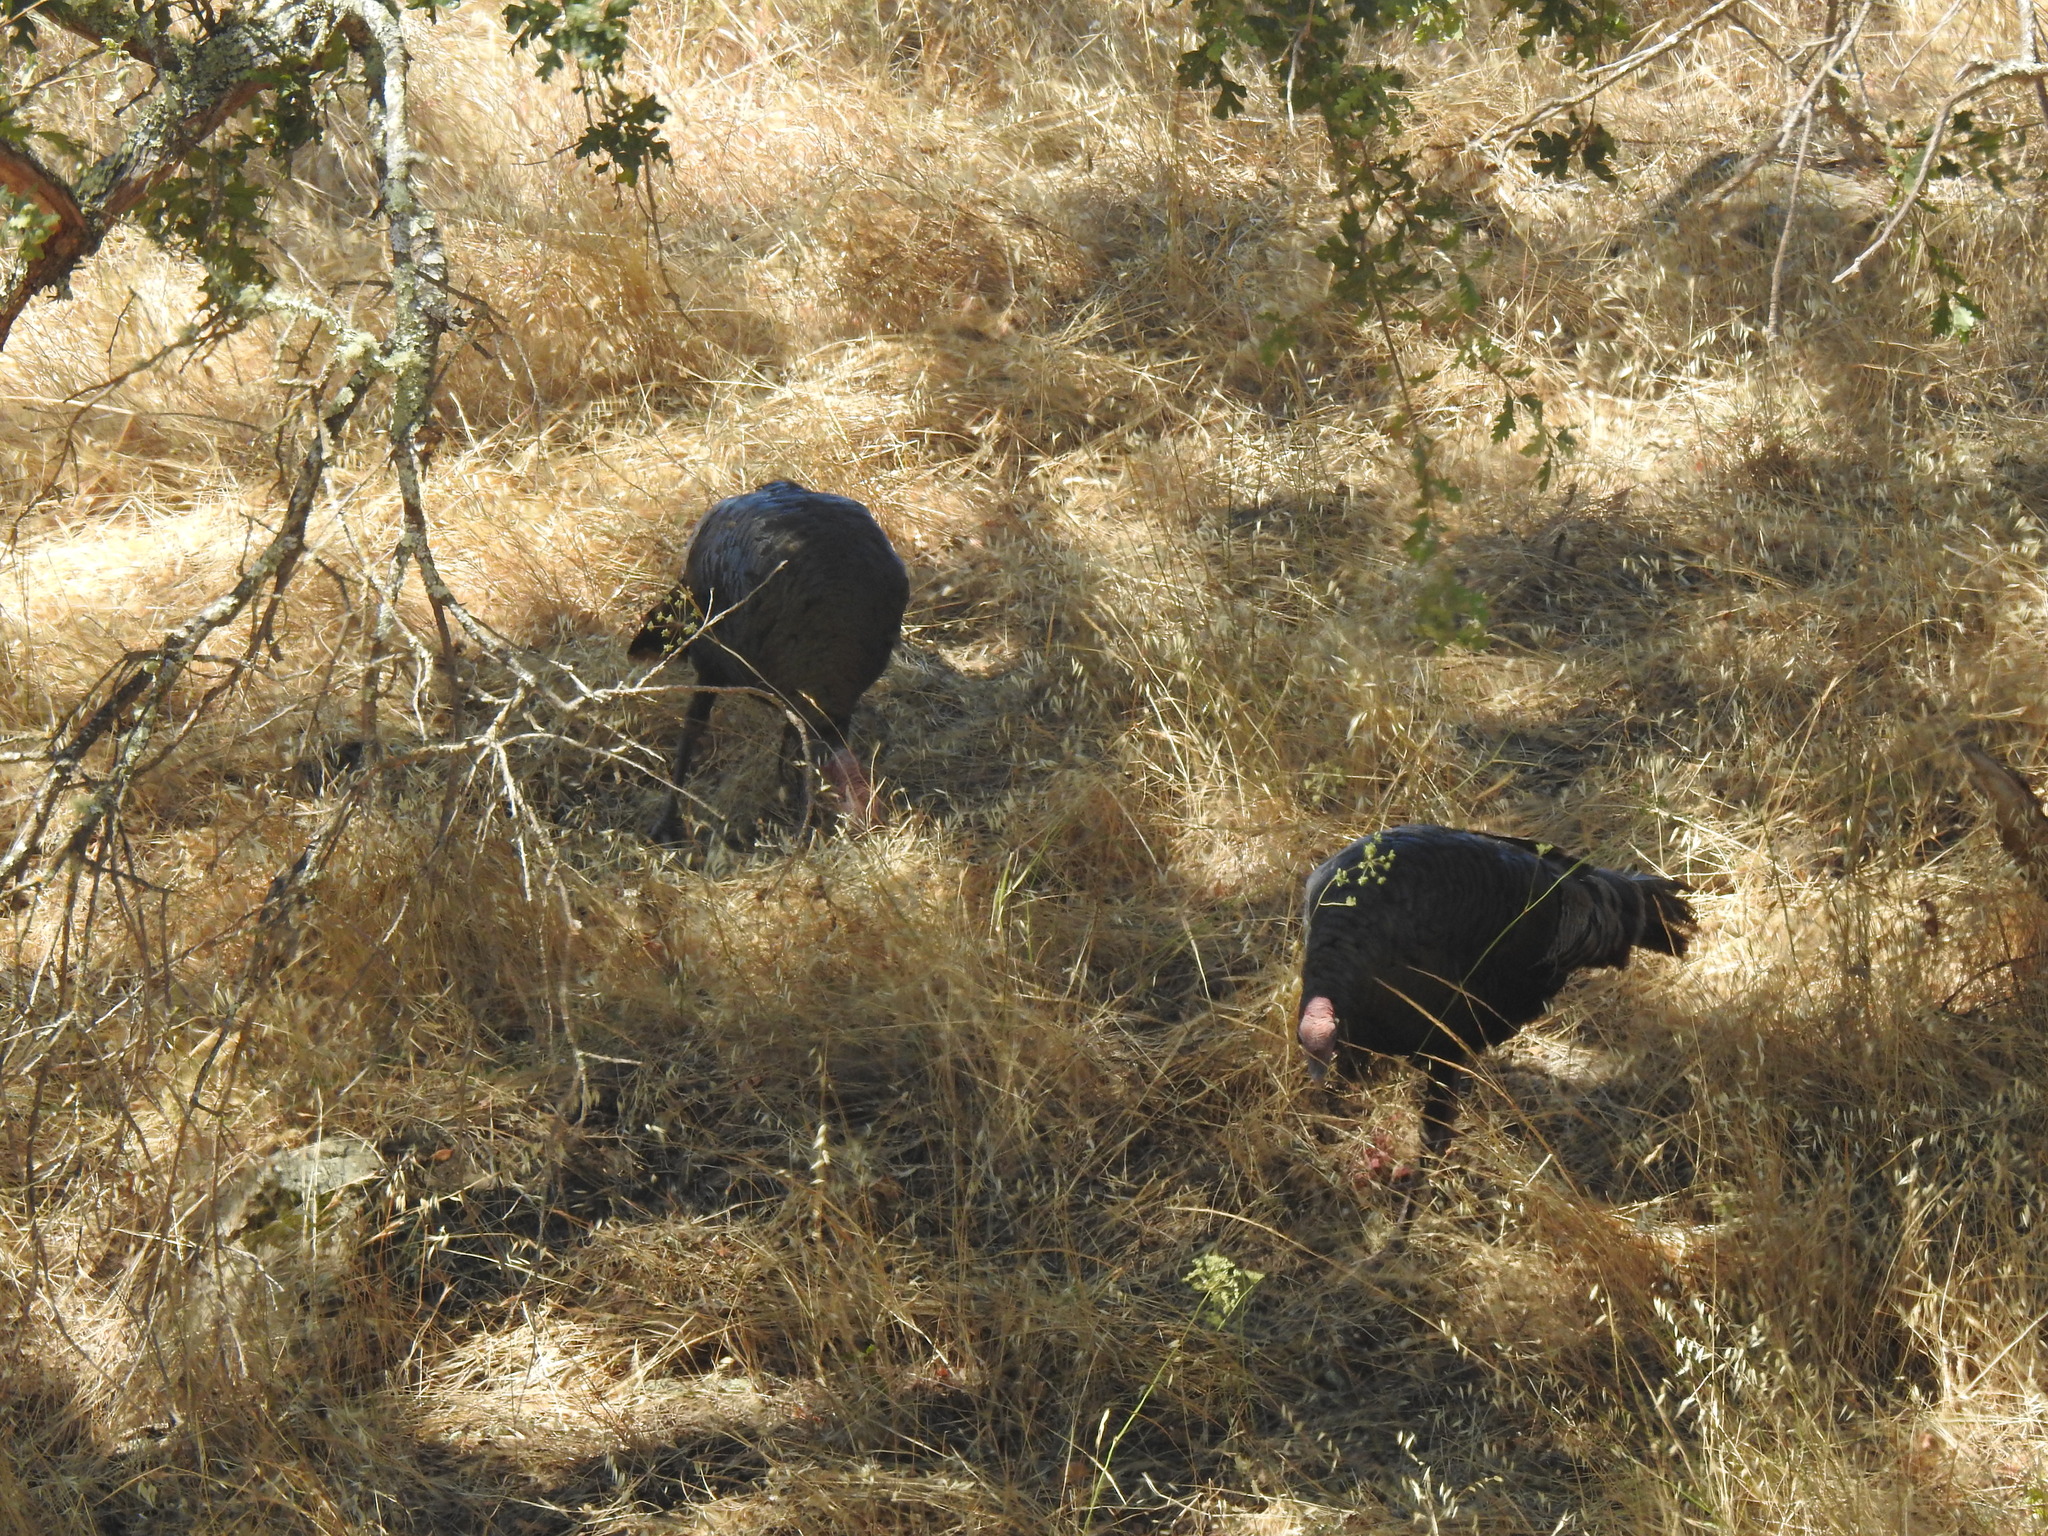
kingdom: Animalia
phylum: Chordata
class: Aves
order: Galliformes
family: Phasianidae
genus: Meleagris
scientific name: Meleagris gallopavo
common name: Wild turkey
